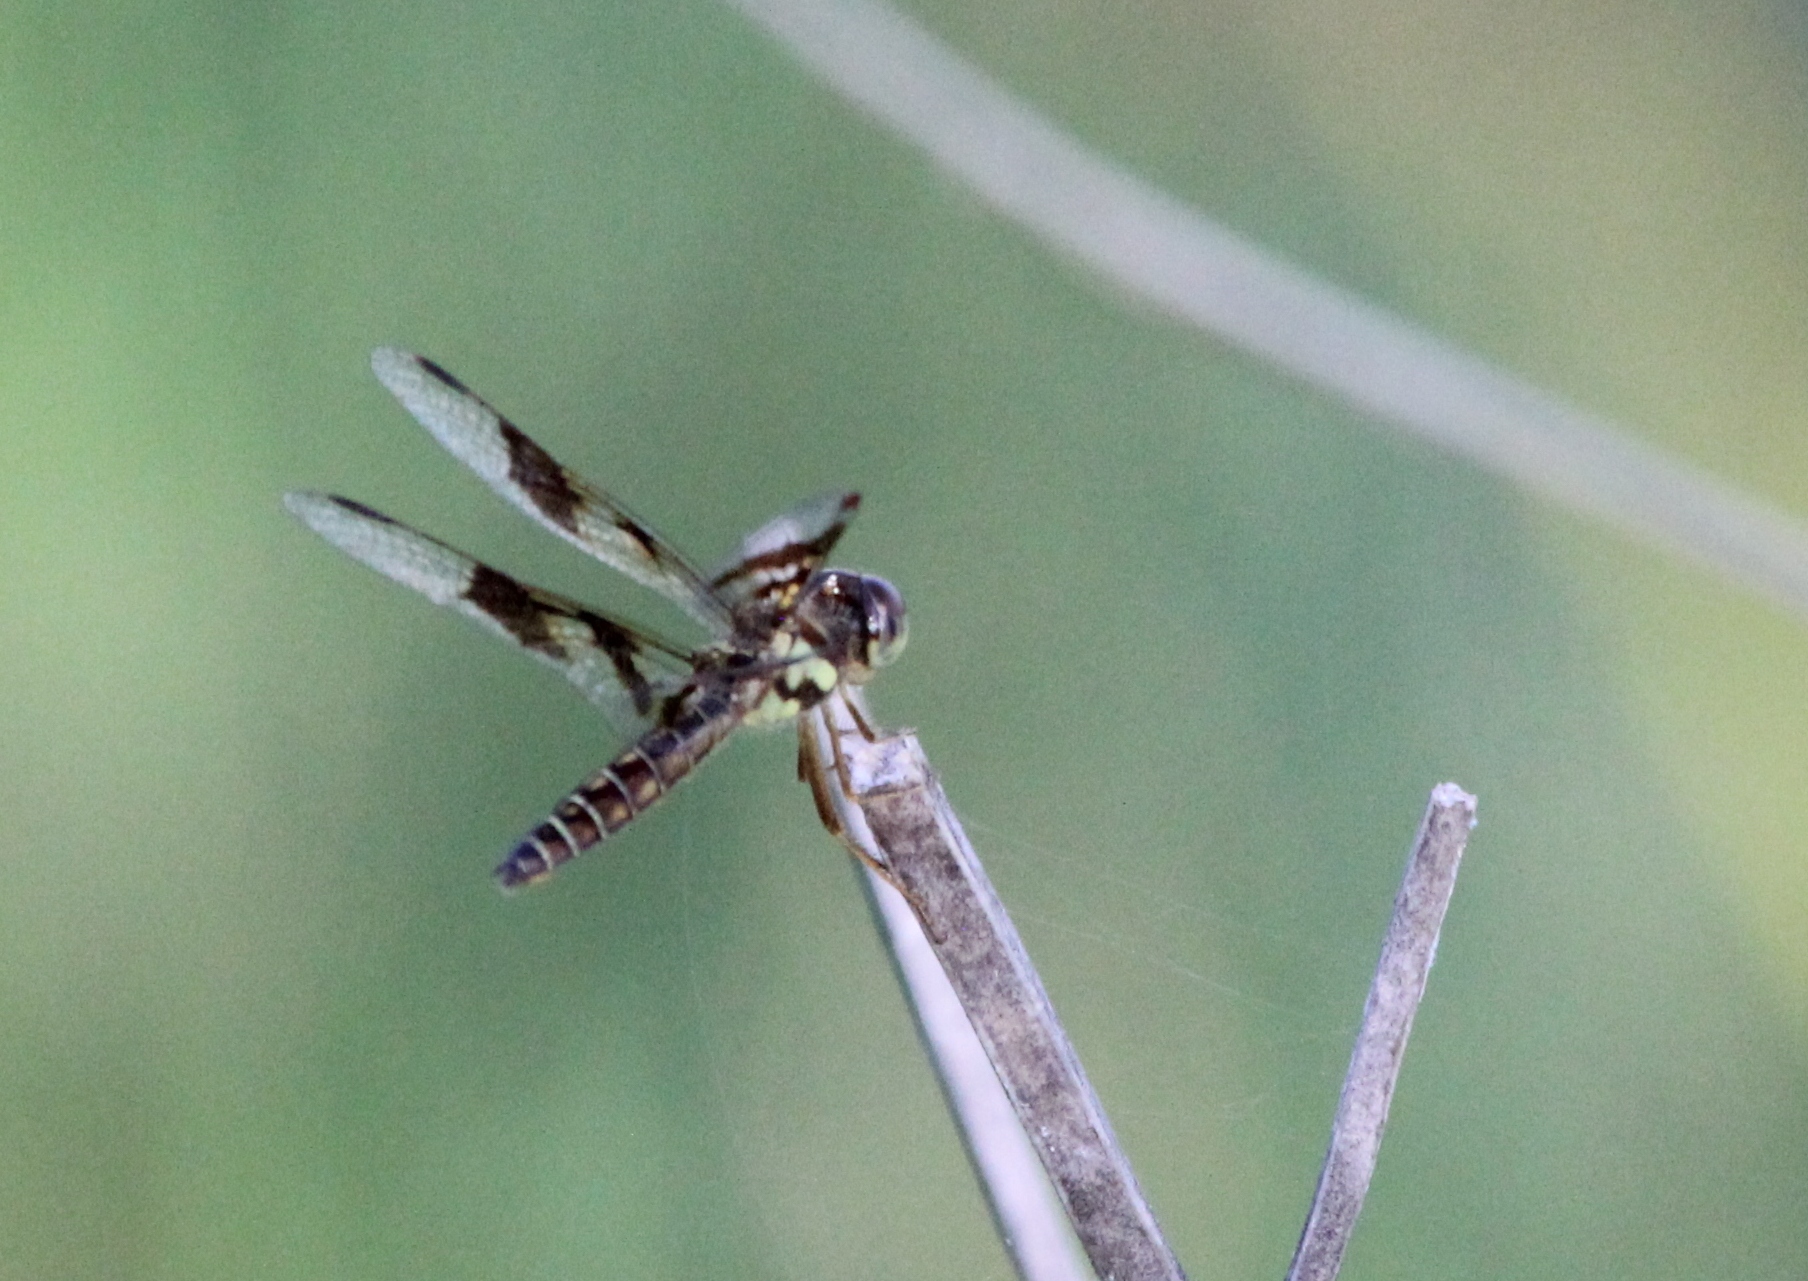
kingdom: Animalia
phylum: Arthropoda
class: Insecta
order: Odonata
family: Libellulidae
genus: Perithemis
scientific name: Perithemis tenera
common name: Eastern amberwing
